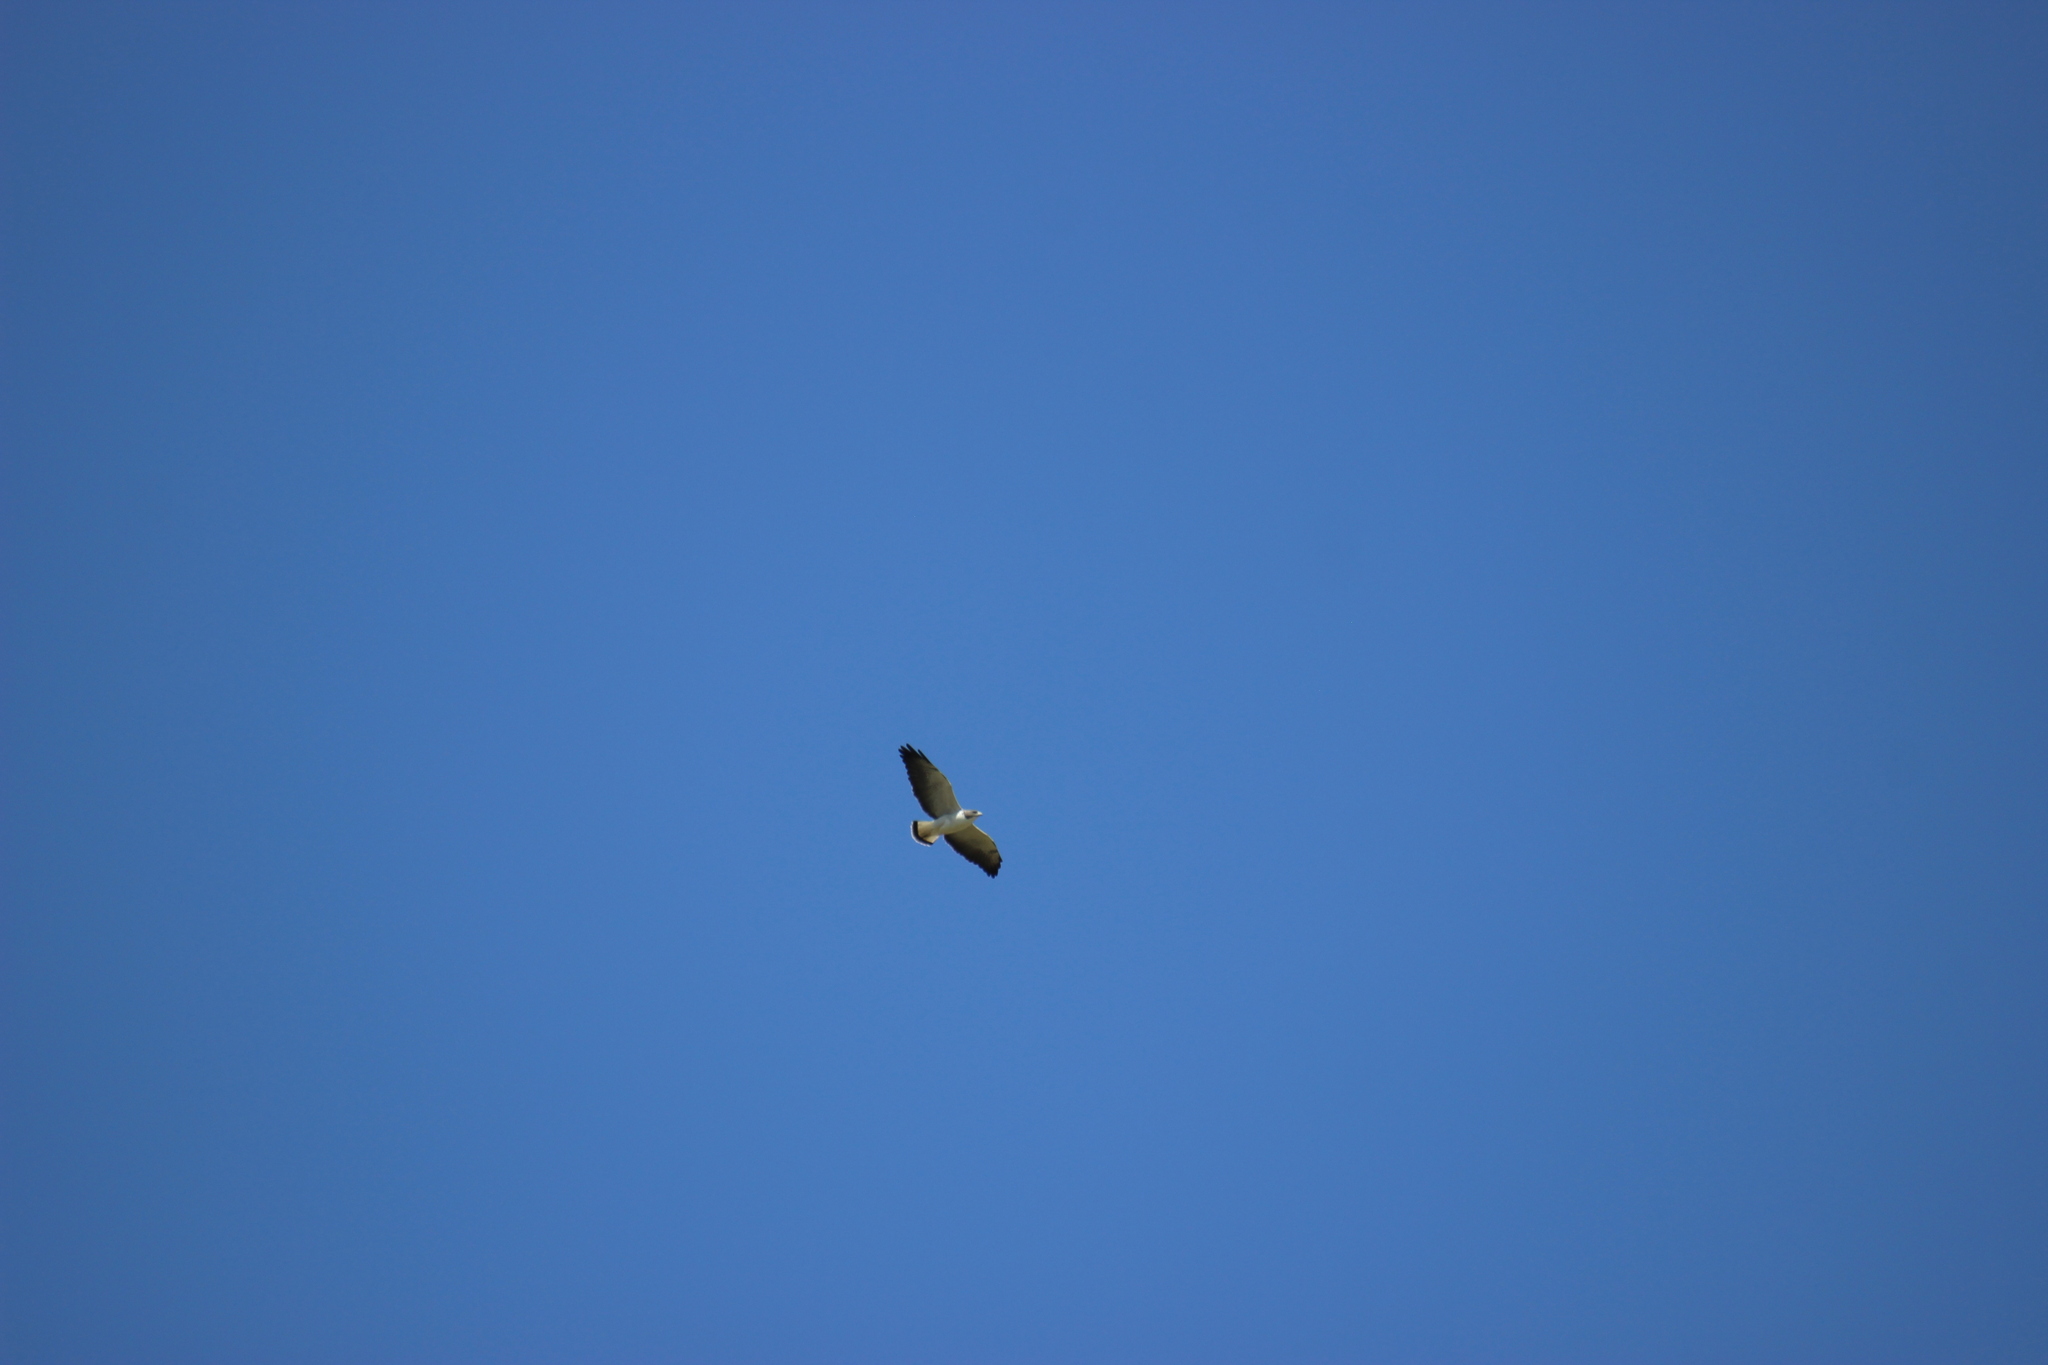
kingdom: Animalia
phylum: Chordata
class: Aves
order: Accipitriformes
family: Accipitridae
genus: Buteo
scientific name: Buteo albicaudatus
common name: White-tailed hawk
